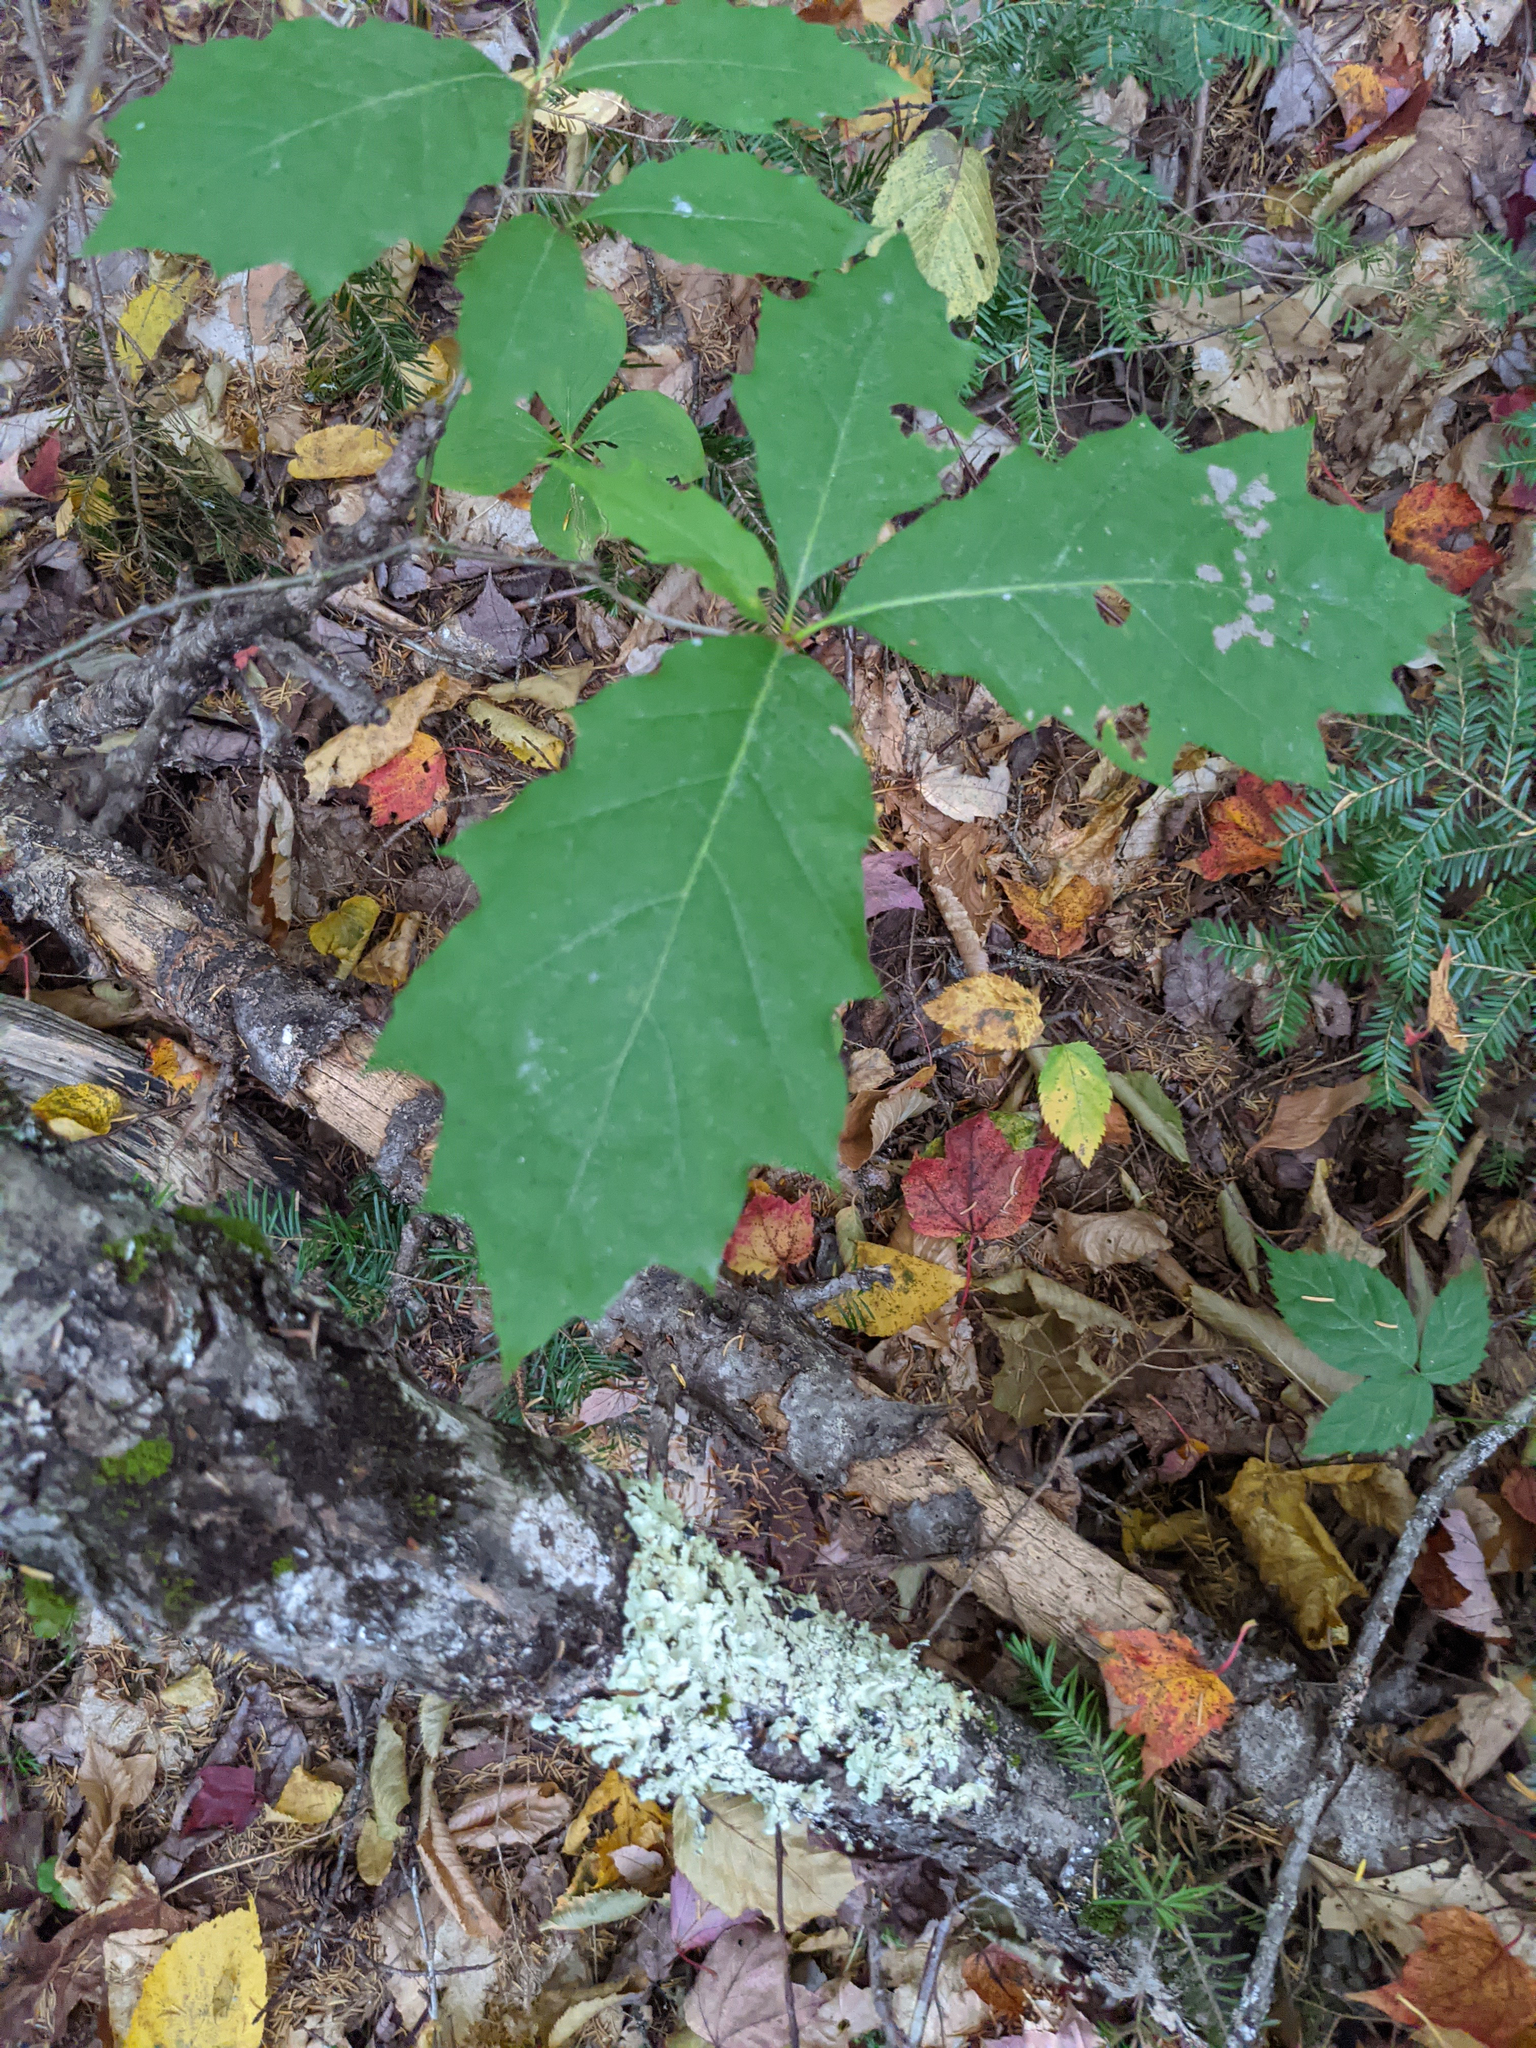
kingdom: Plantae
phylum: Tracheophyta
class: Magnoliopsida
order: Fagales
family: Fagaceae
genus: Quercus
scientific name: Quercus rubra
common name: Red oak
